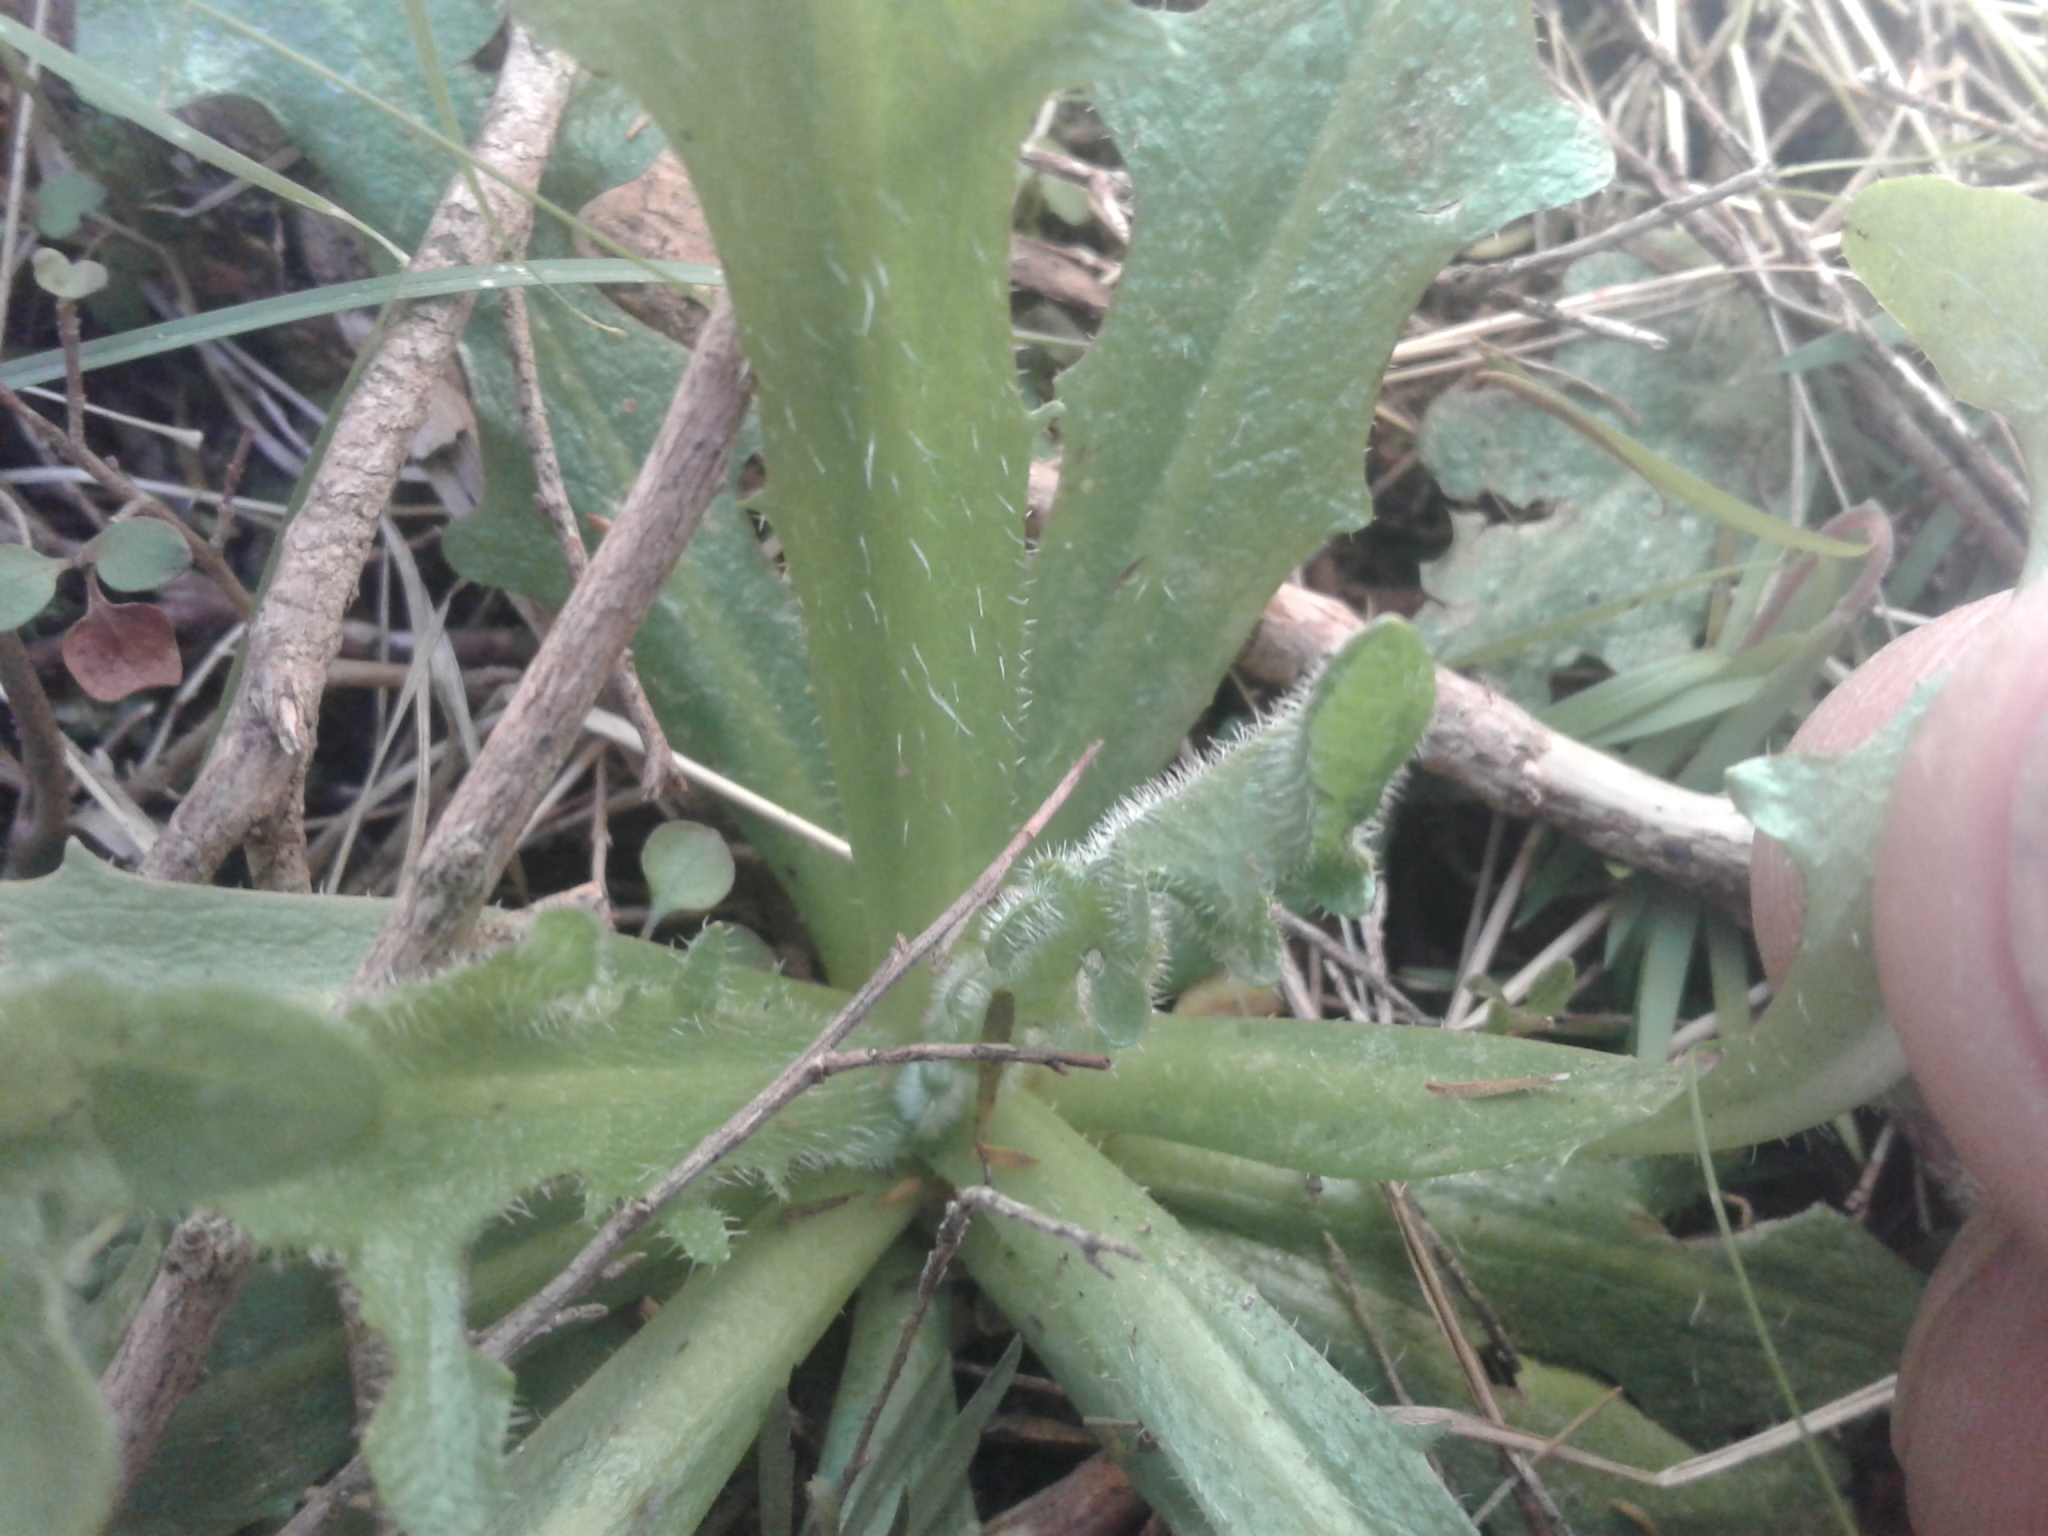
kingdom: Plantae
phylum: Tracheophyta
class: Magnoliopsida
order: Asterales
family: Asteraceae
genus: Hypochaeris
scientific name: Hypochaeris radicata
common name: Flatweed
